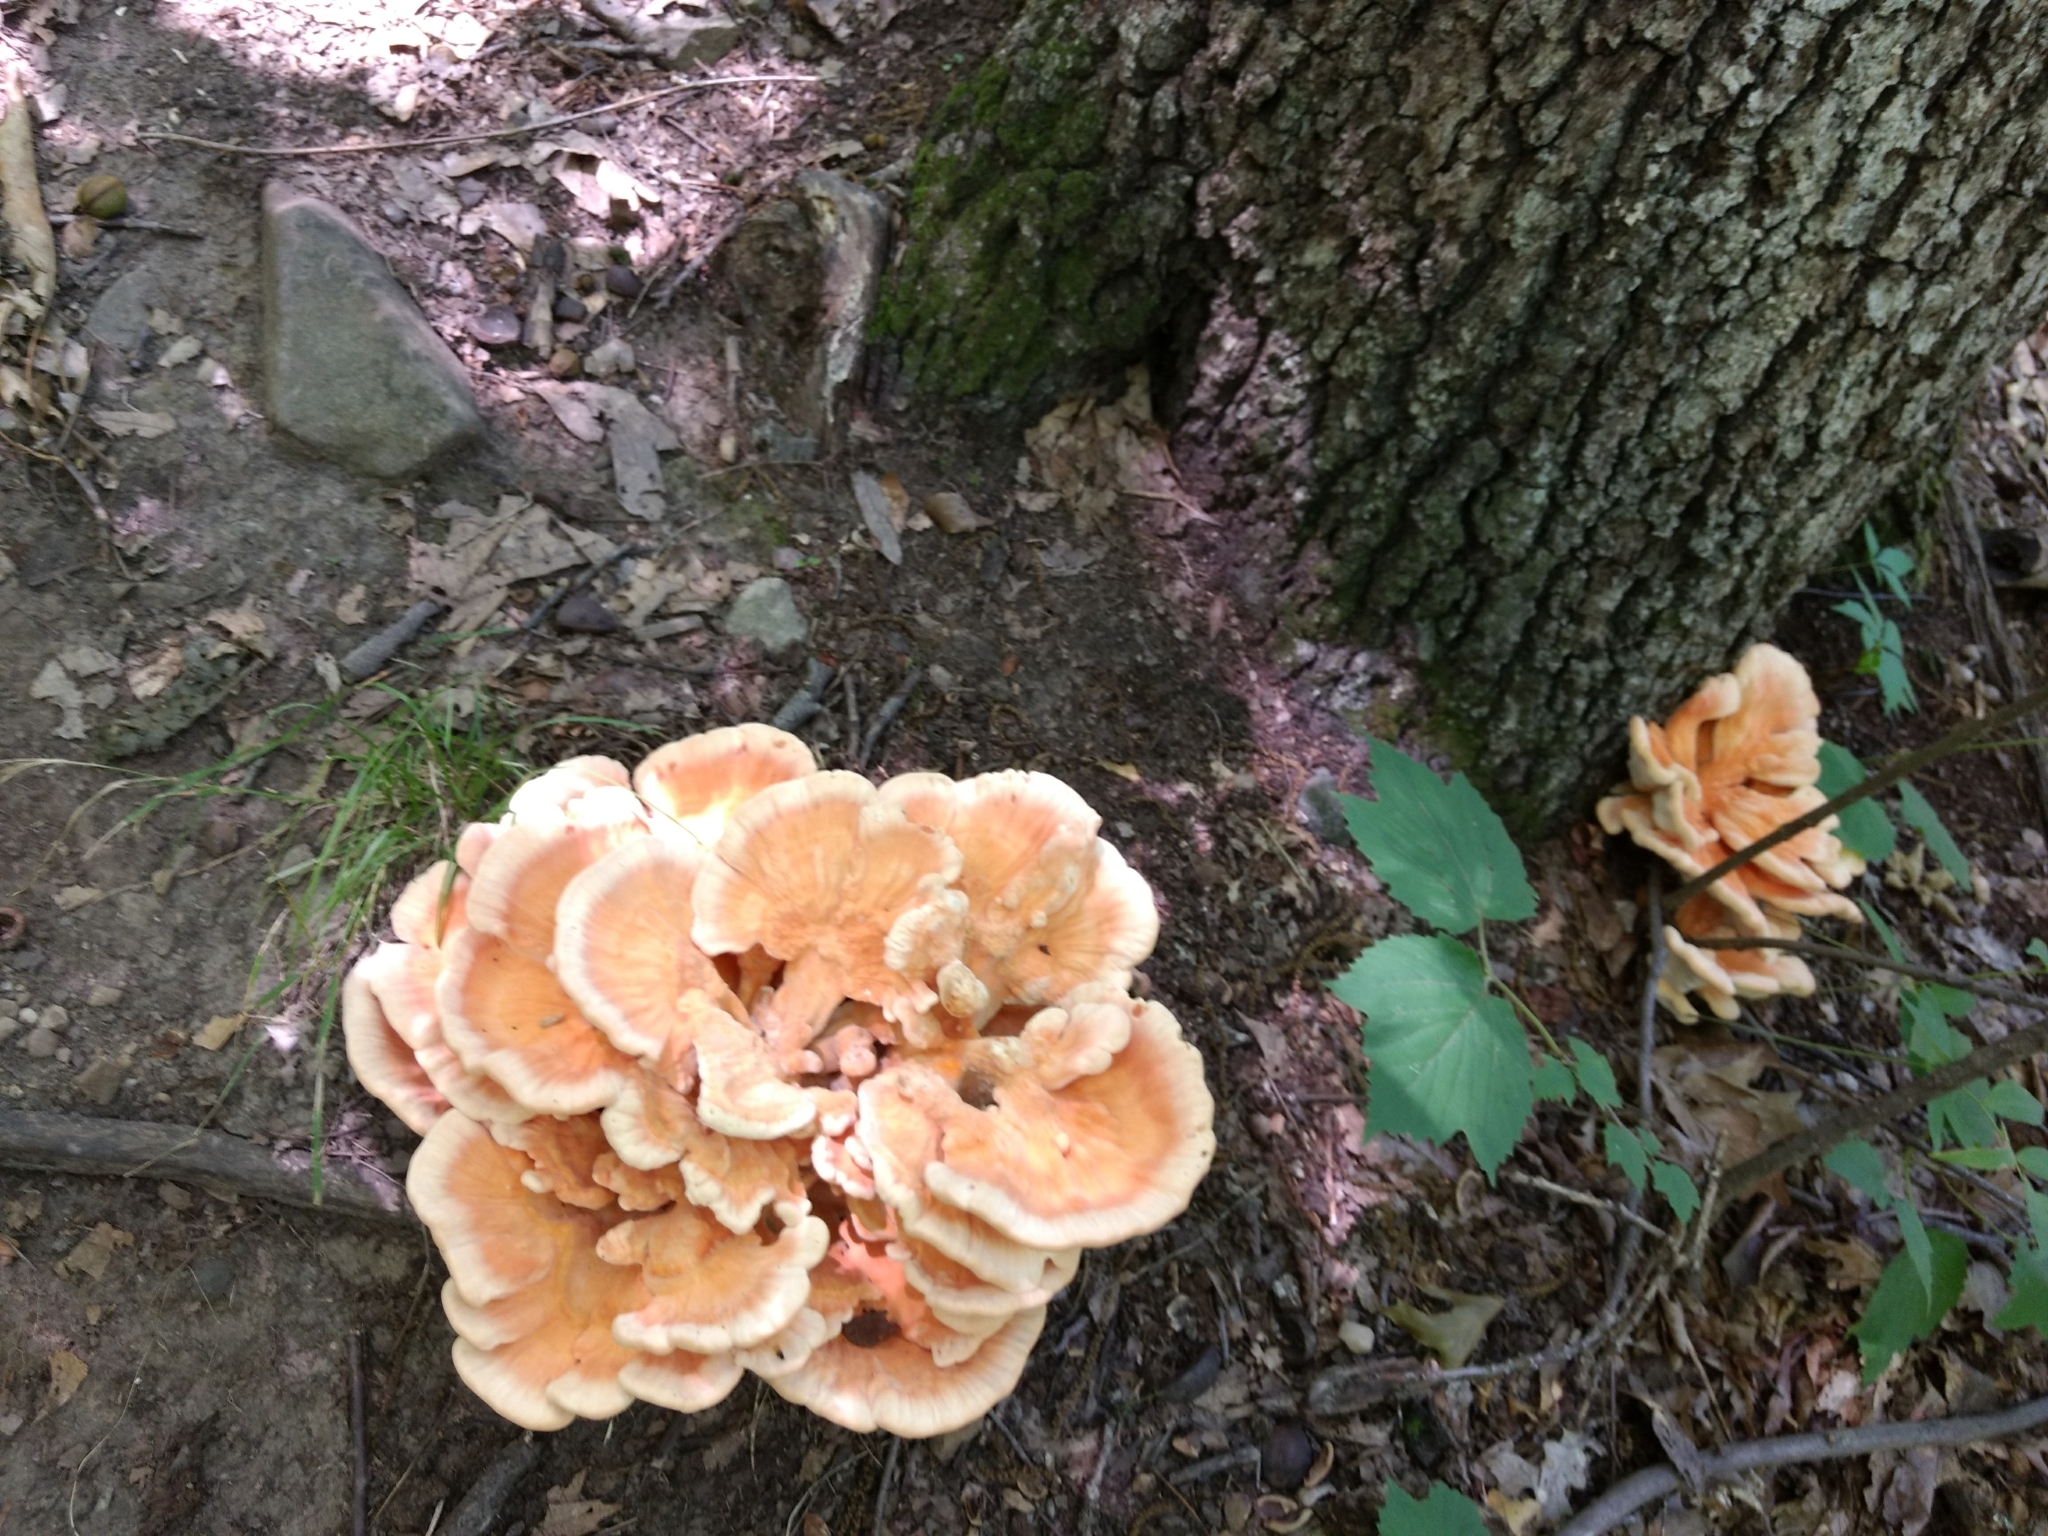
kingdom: Fungi
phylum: Basidiomycota
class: Agaricomycetes
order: Polyporales
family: Laetiporaceae
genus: Laetiporus
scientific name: Laetiporus sulphureus
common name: Chicken of the woods
